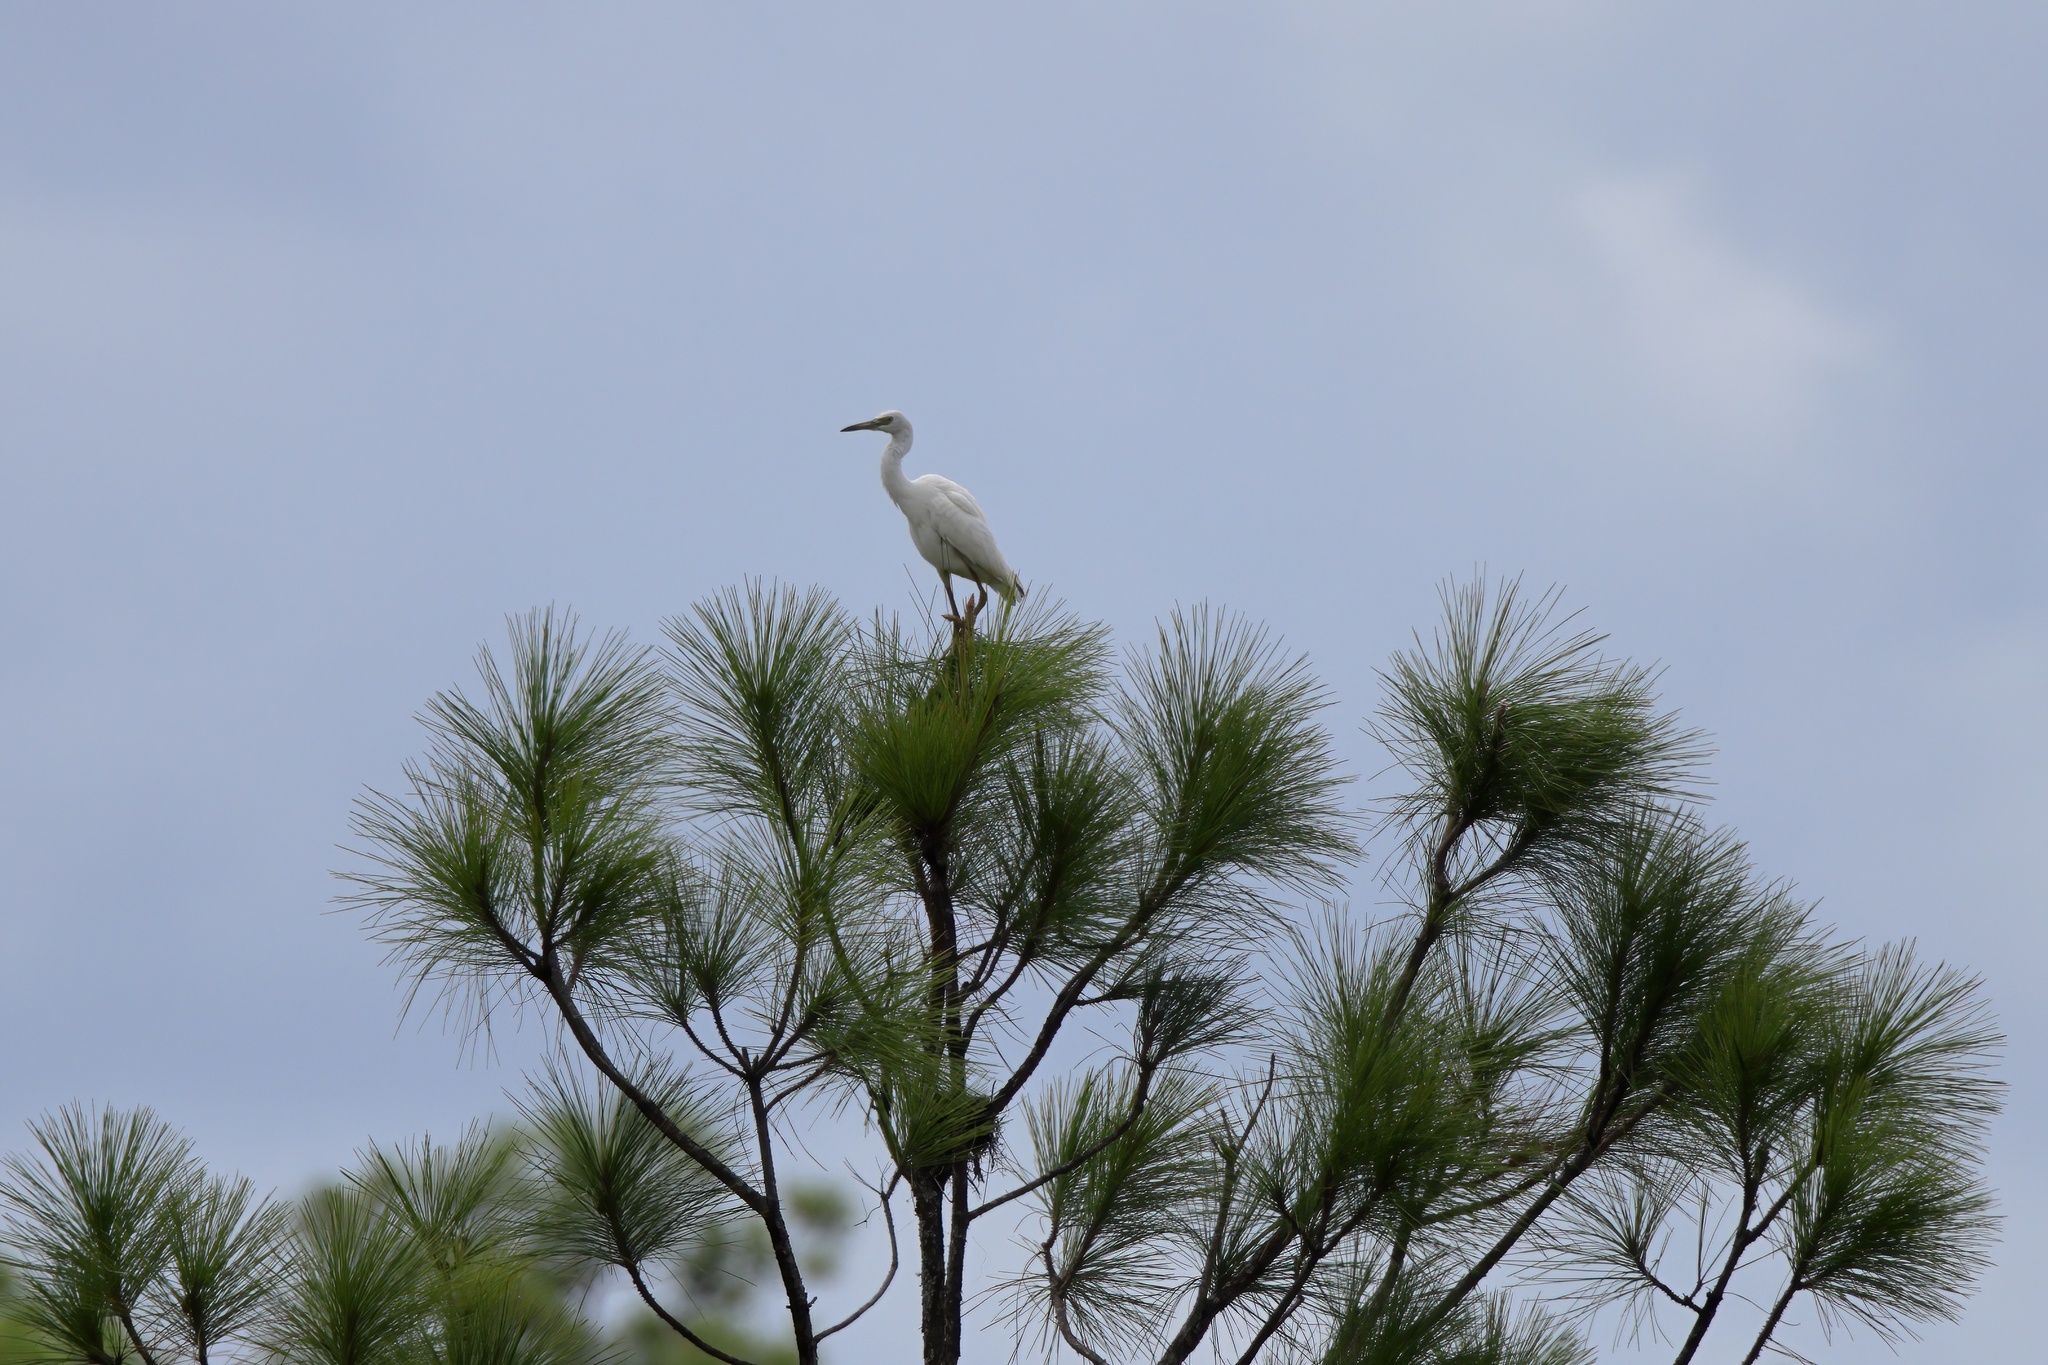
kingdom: Animalia
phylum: Chordata
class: Aves
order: Pelecaniformes
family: Ardeidae
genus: Egretta
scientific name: Egretta caerulea
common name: Little blue heron
